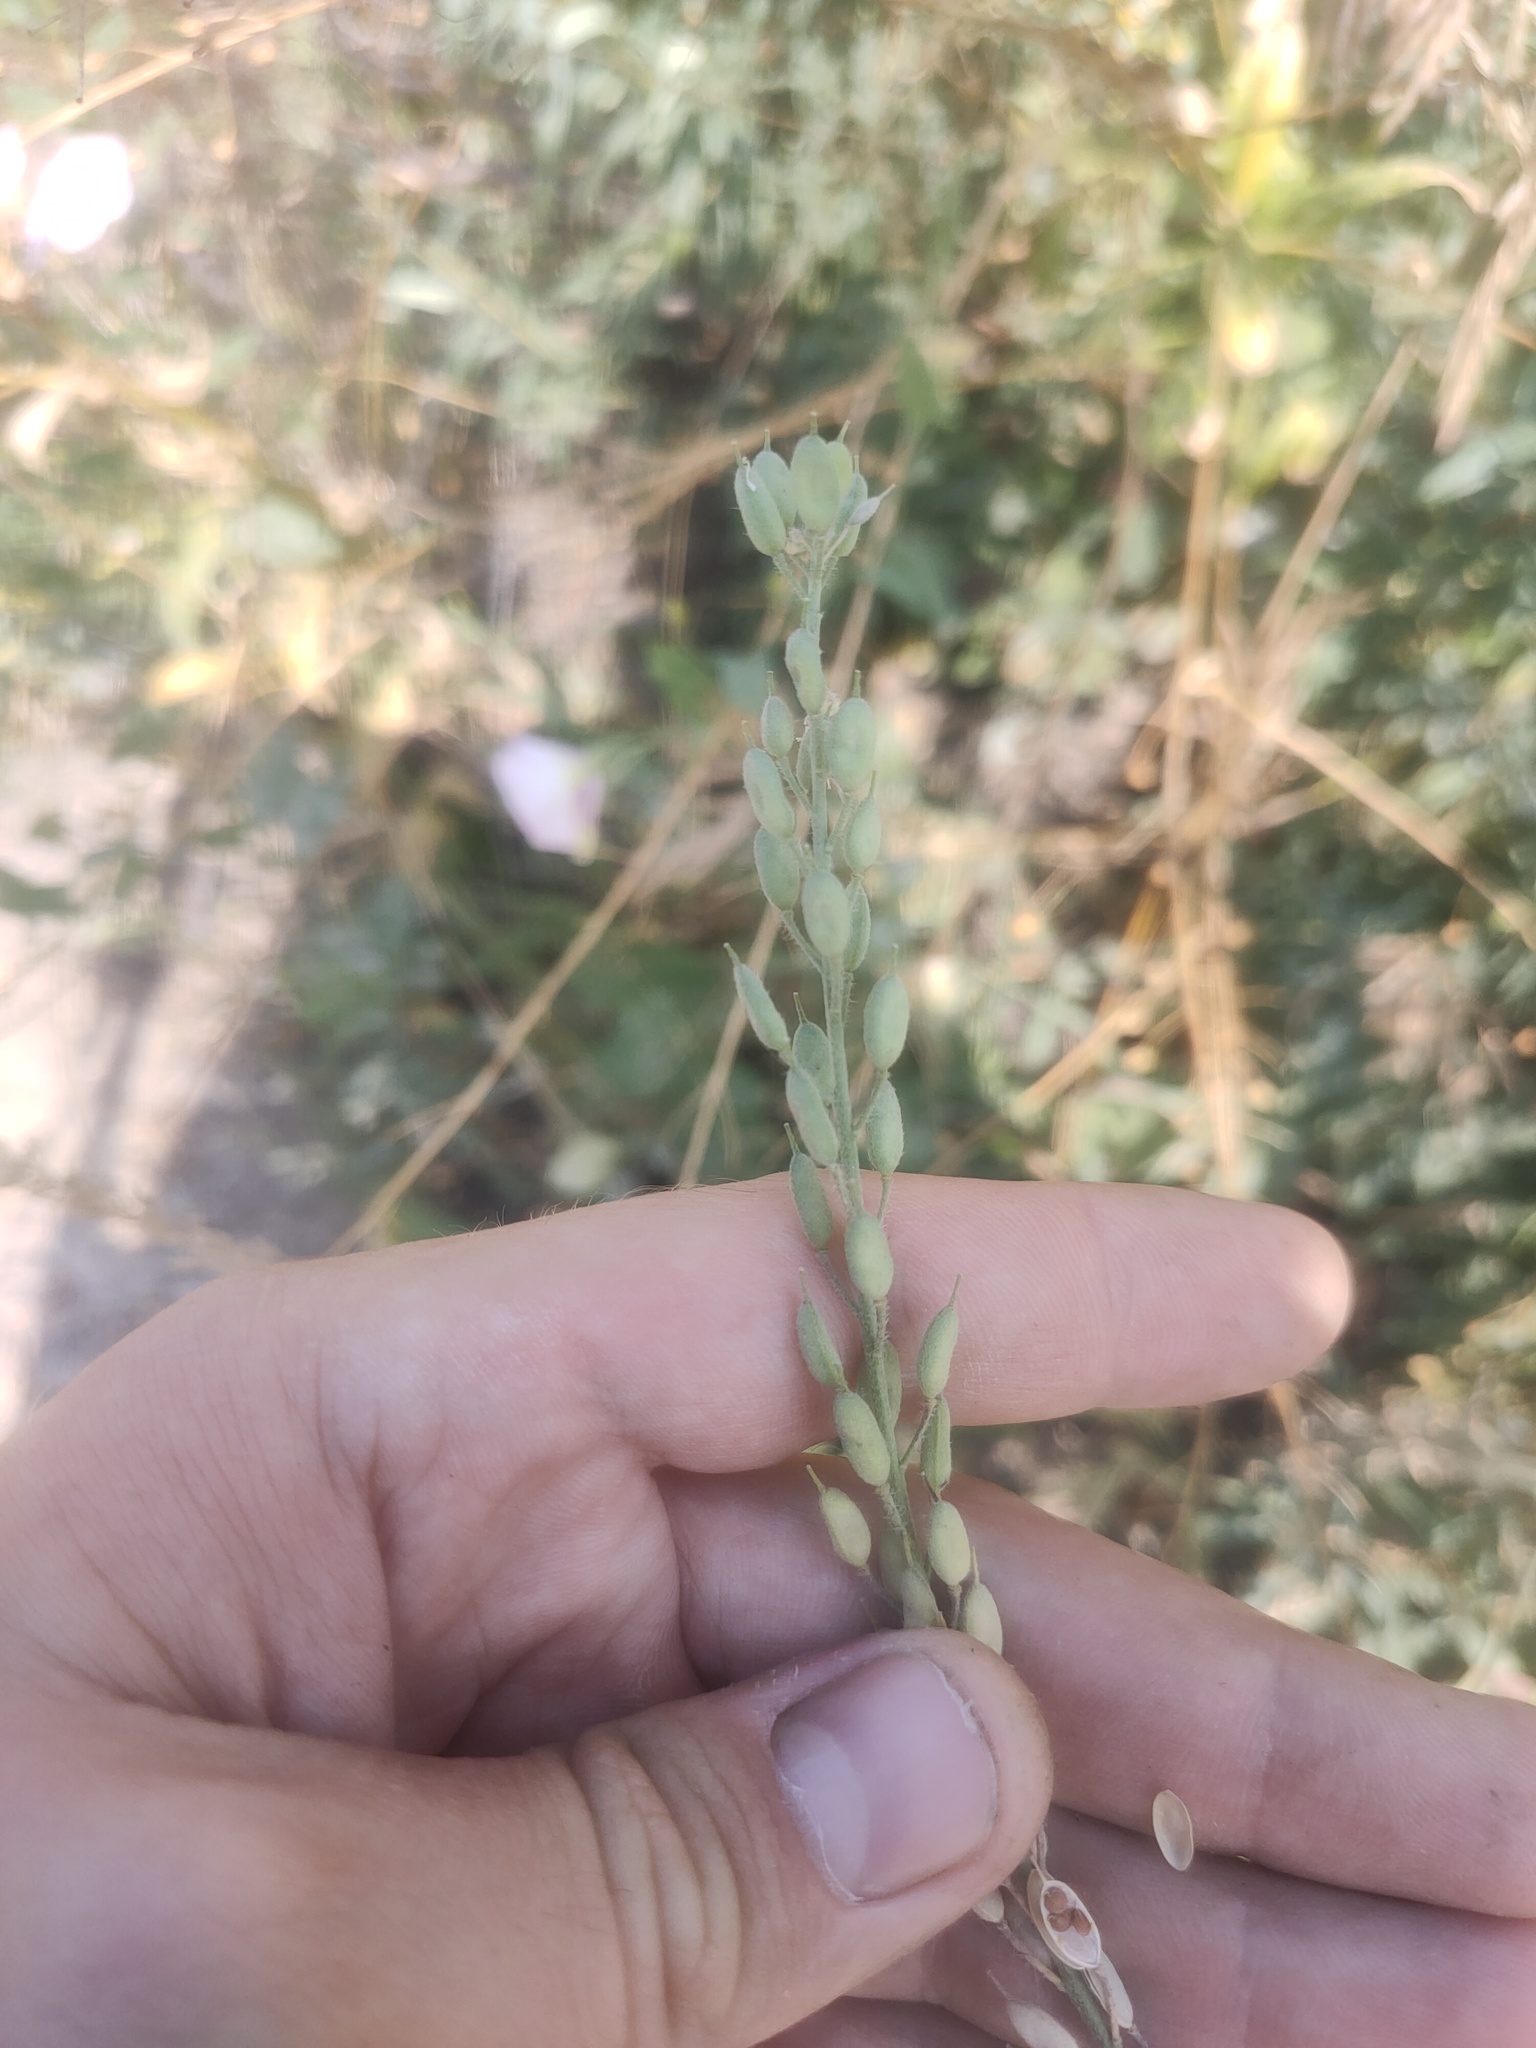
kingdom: Plantae
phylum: Tracheophyta
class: Magnoliopsida
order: Brassicales
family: Brassicaceae
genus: Berteroa
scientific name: Berteroa incana
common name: Hoary alison
